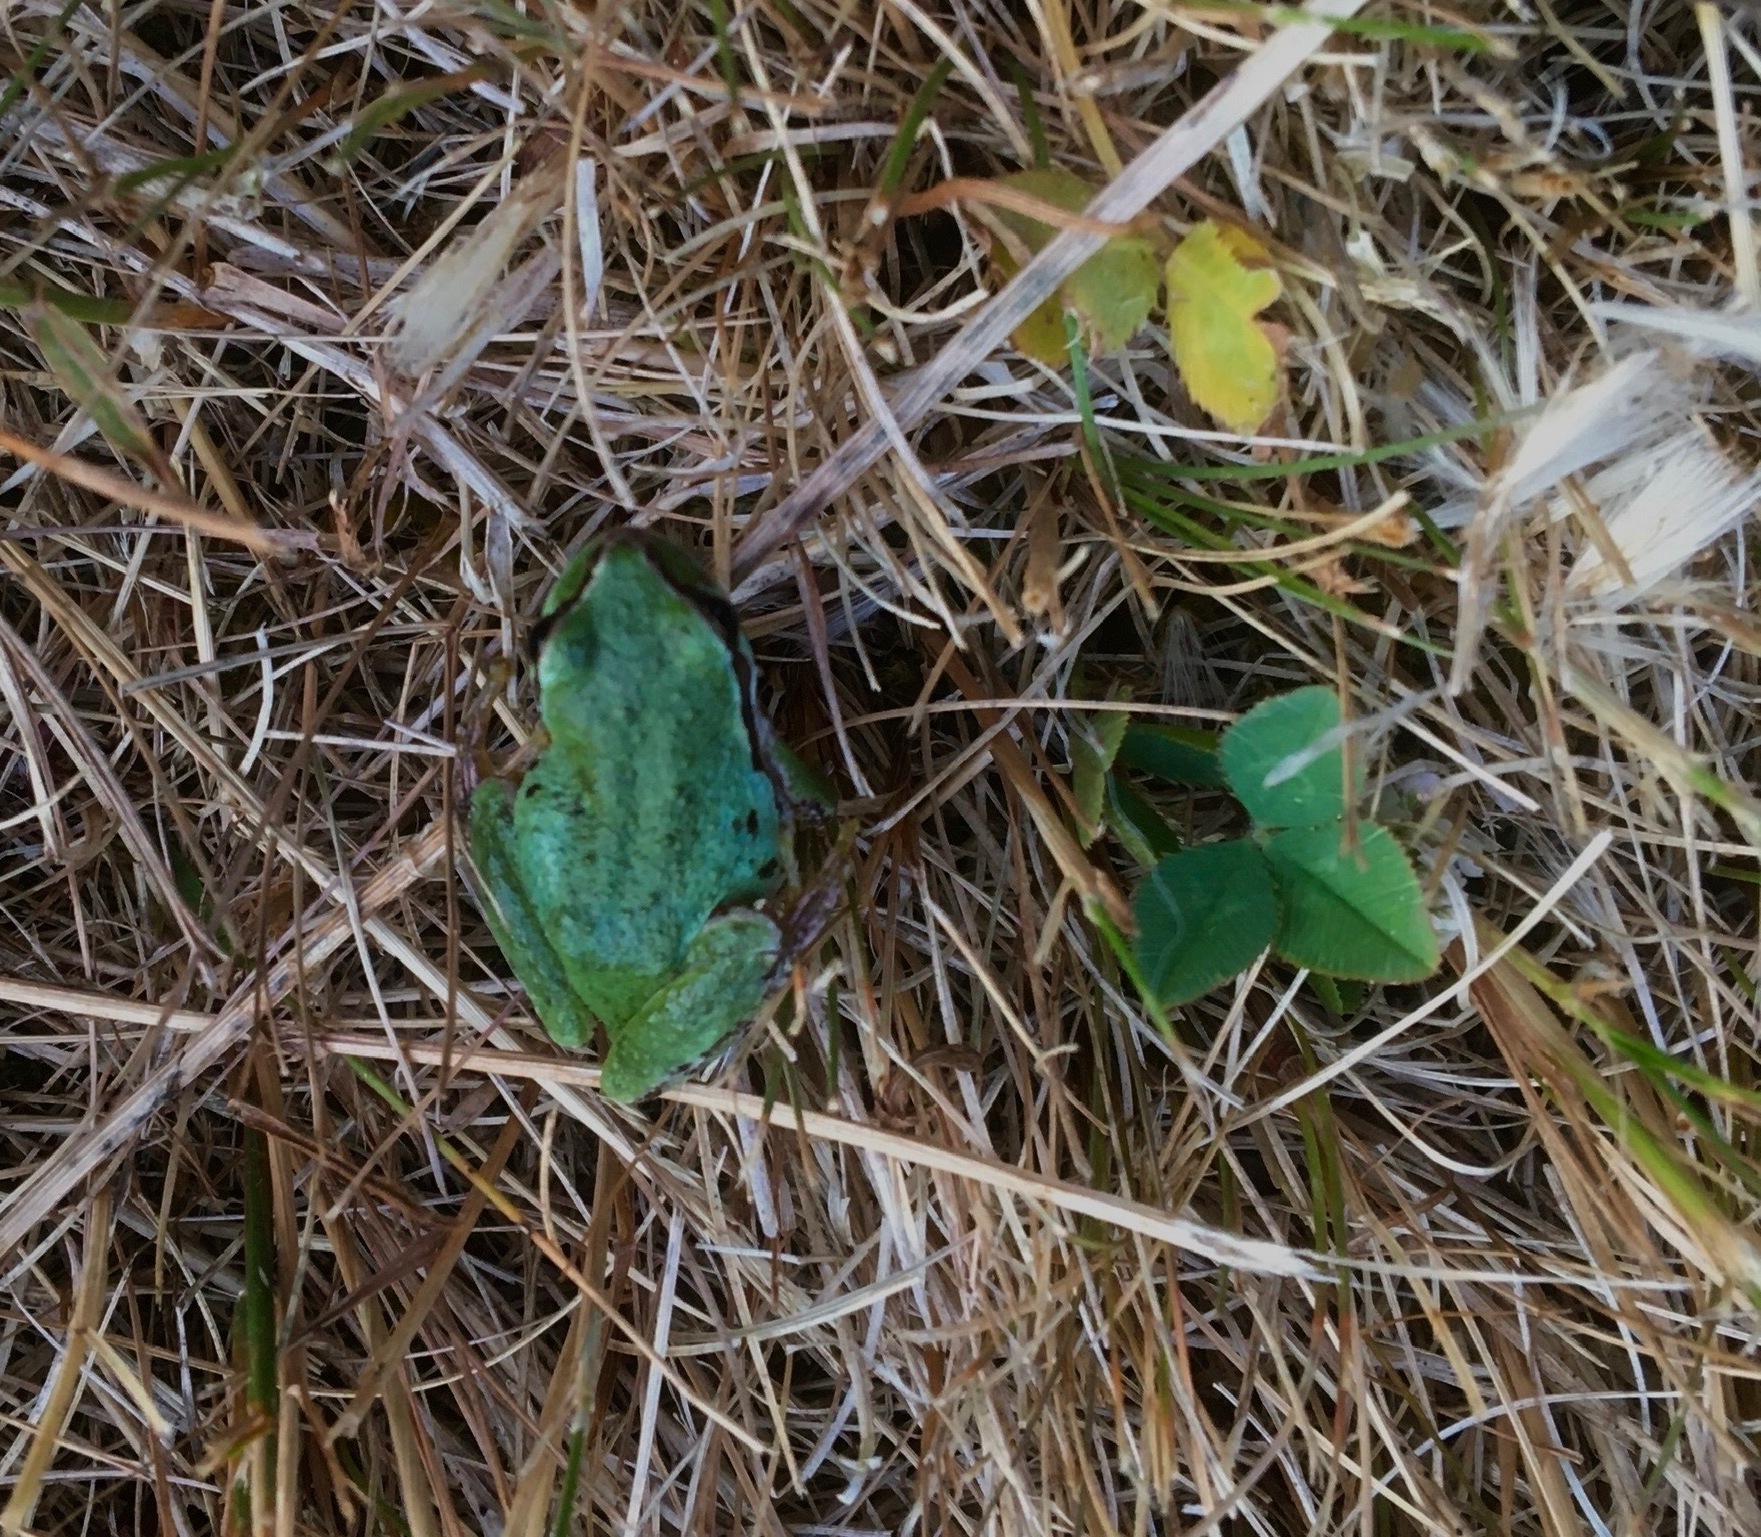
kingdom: Animalia
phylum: Chordata
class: Amphibia
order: Anura
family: Hylidae
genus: Pseudacris
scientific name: Pseudacris regilla
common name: Pacific chorus frog
